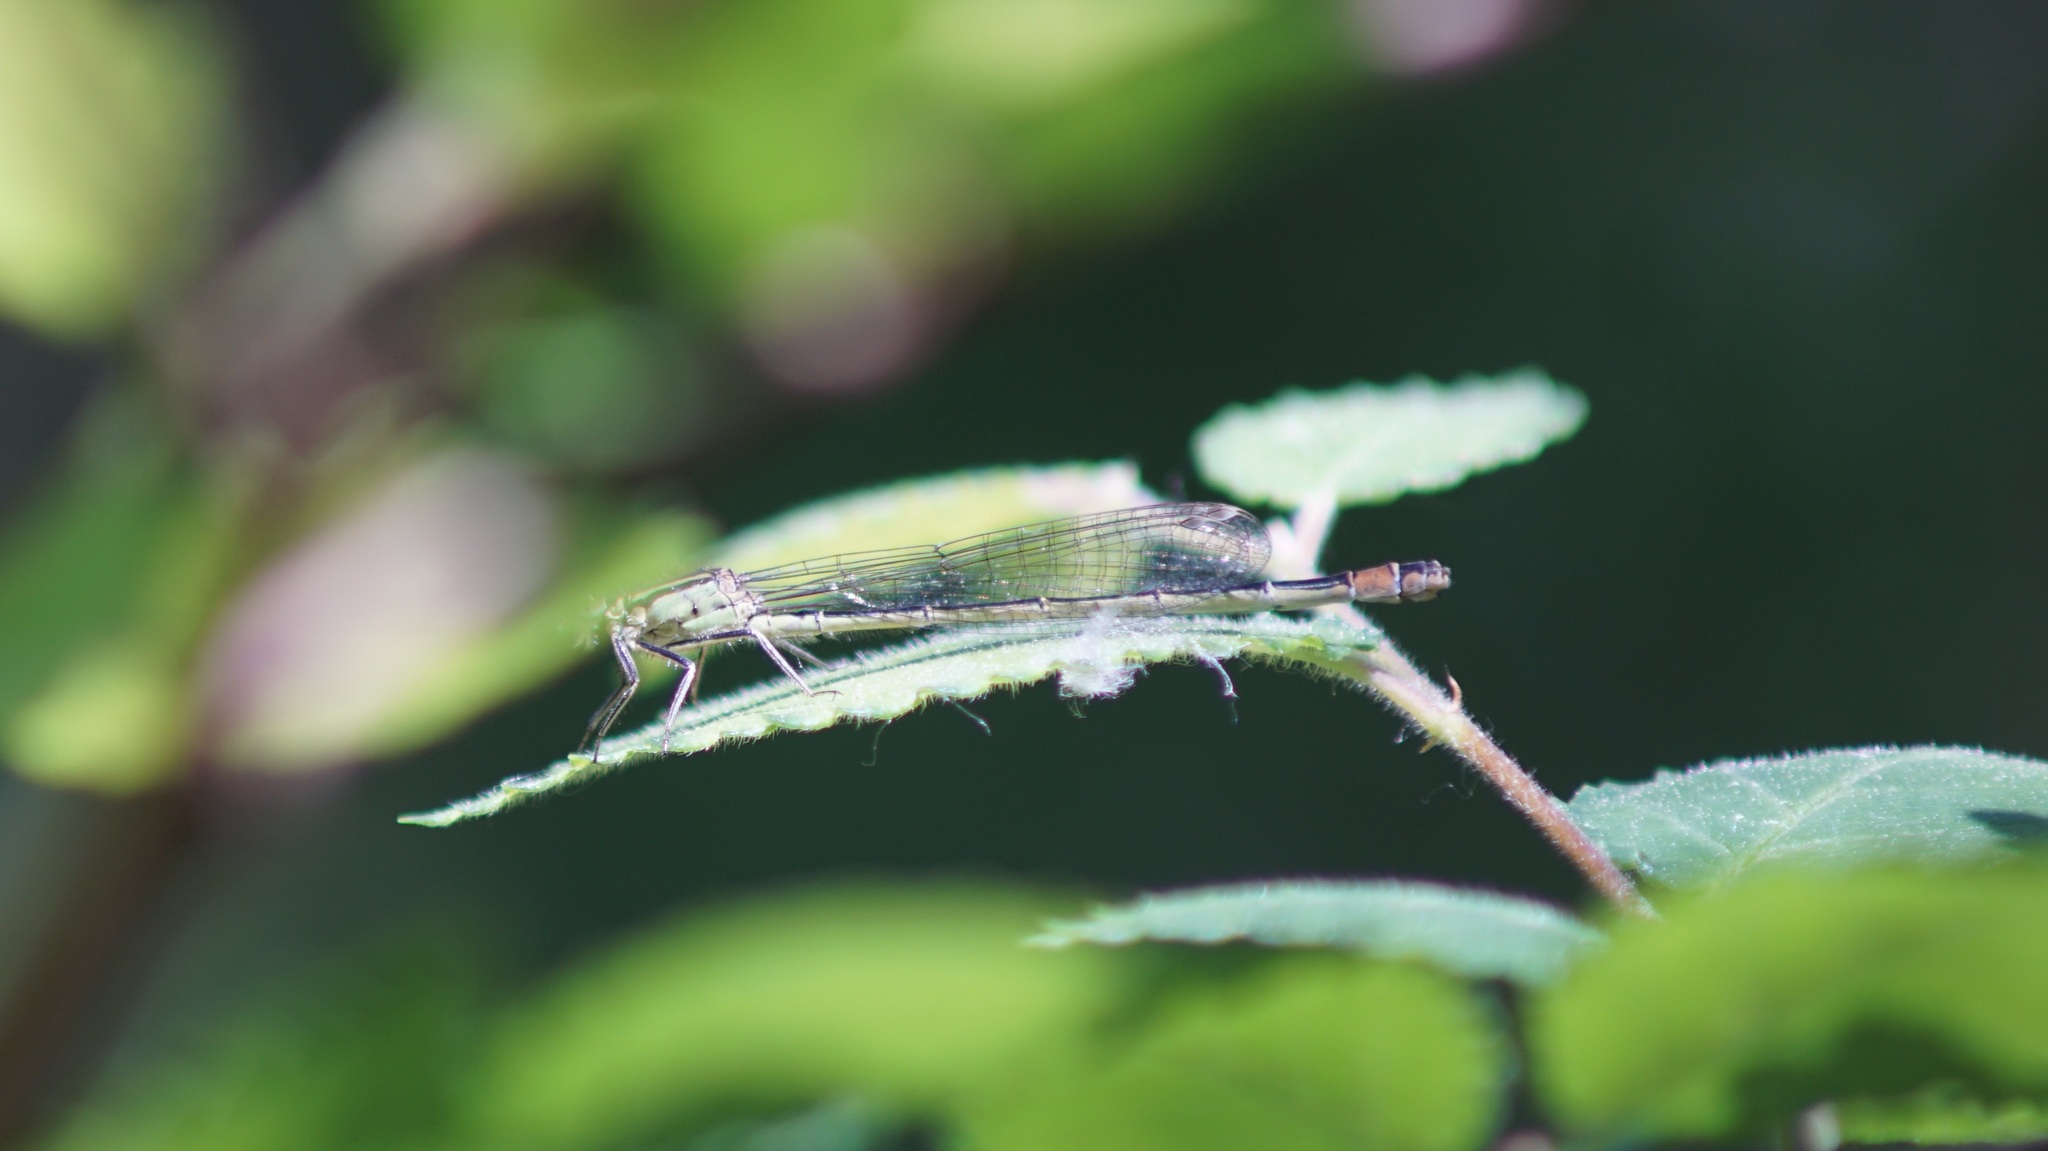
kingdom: Animalia
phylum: Arthropoda
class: Insecta
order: Odonata
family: Coenagrionidae
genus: Ischnura
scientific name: Ischnura elegans
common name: Blue-tailed damselfly
